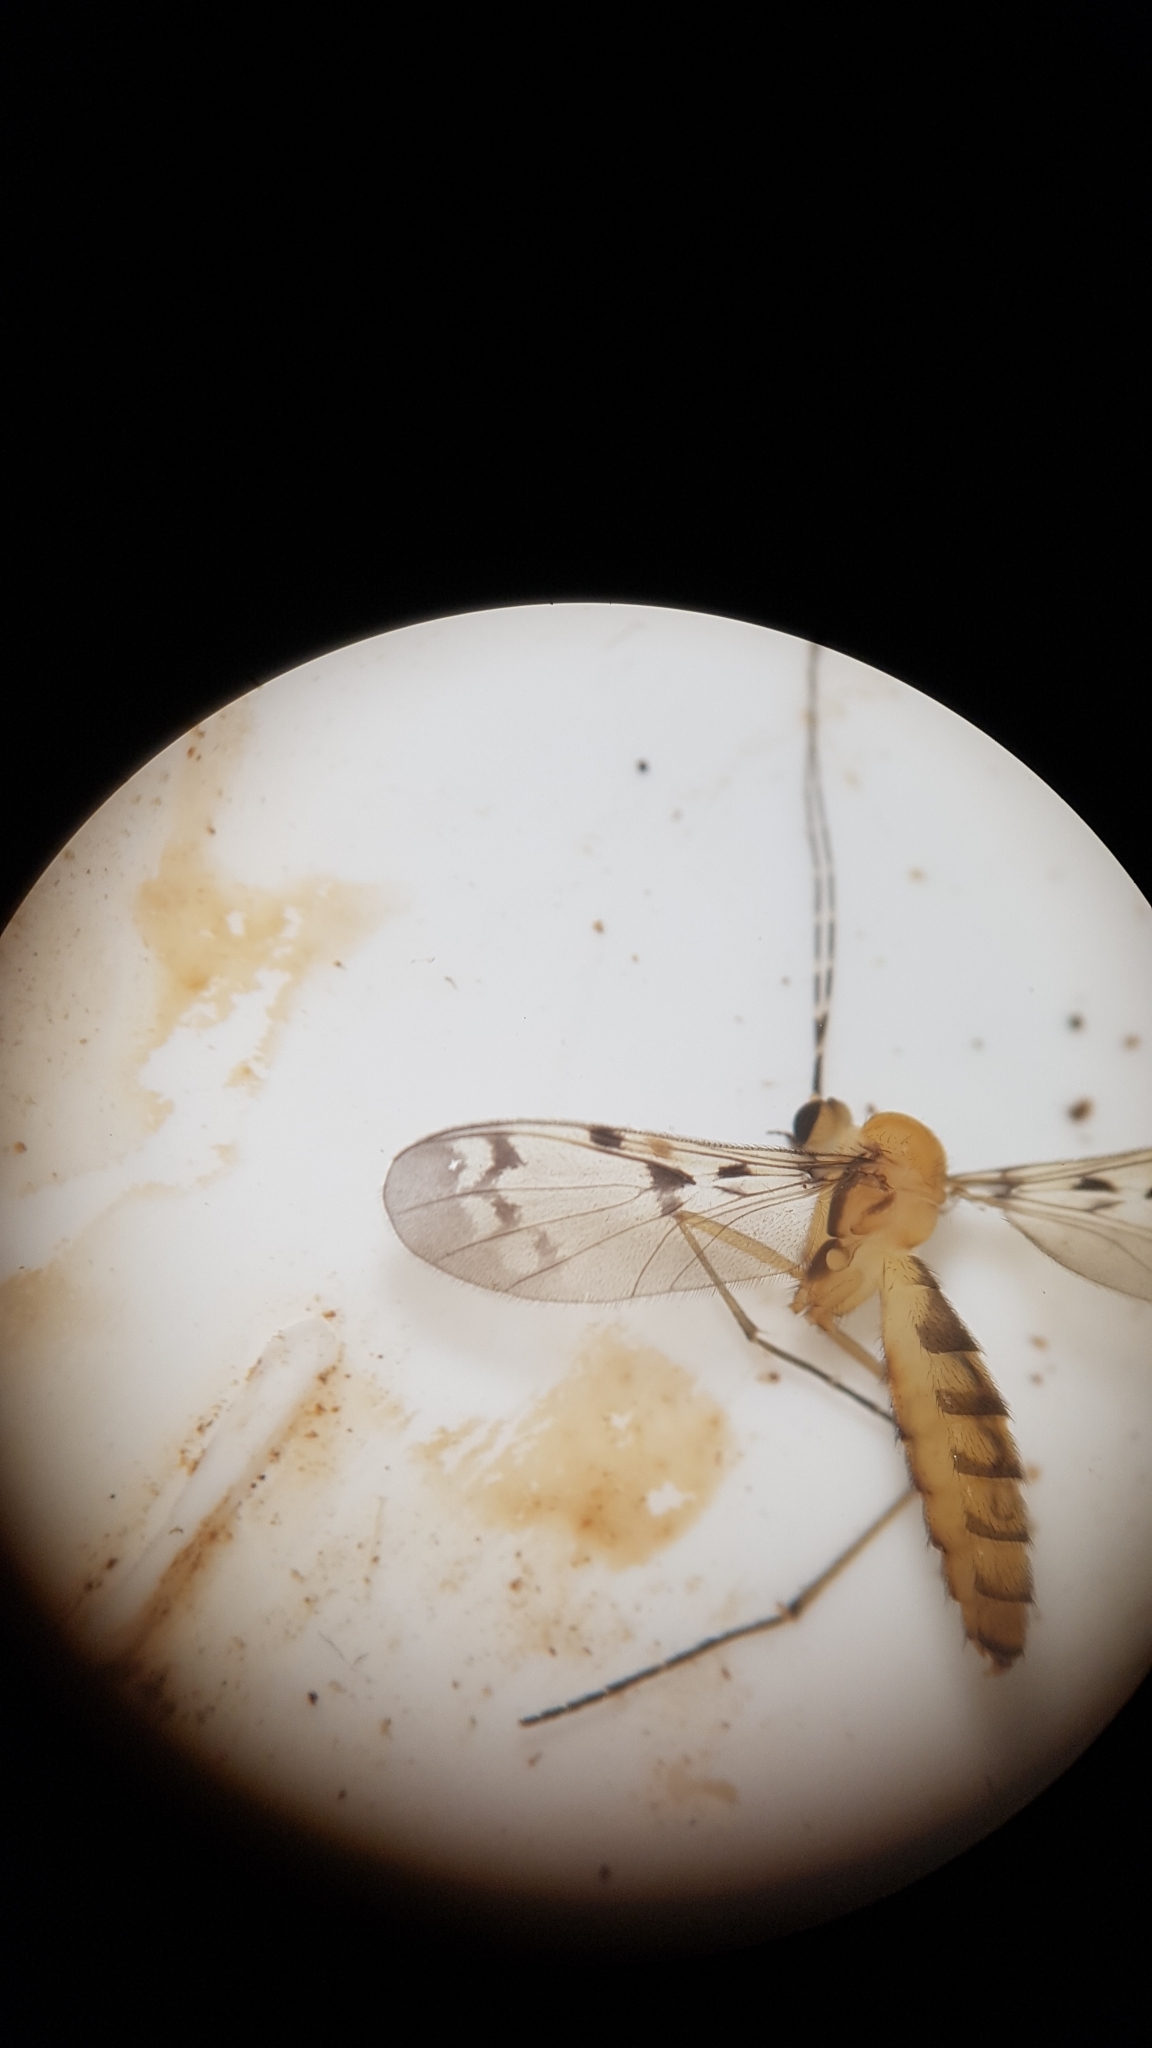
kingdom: Animalia
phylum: Arthropoda
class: Insecta
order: Diptera
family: Keroplatidae
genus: Chiasmoneura
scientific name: Chiasmoneura milligani
